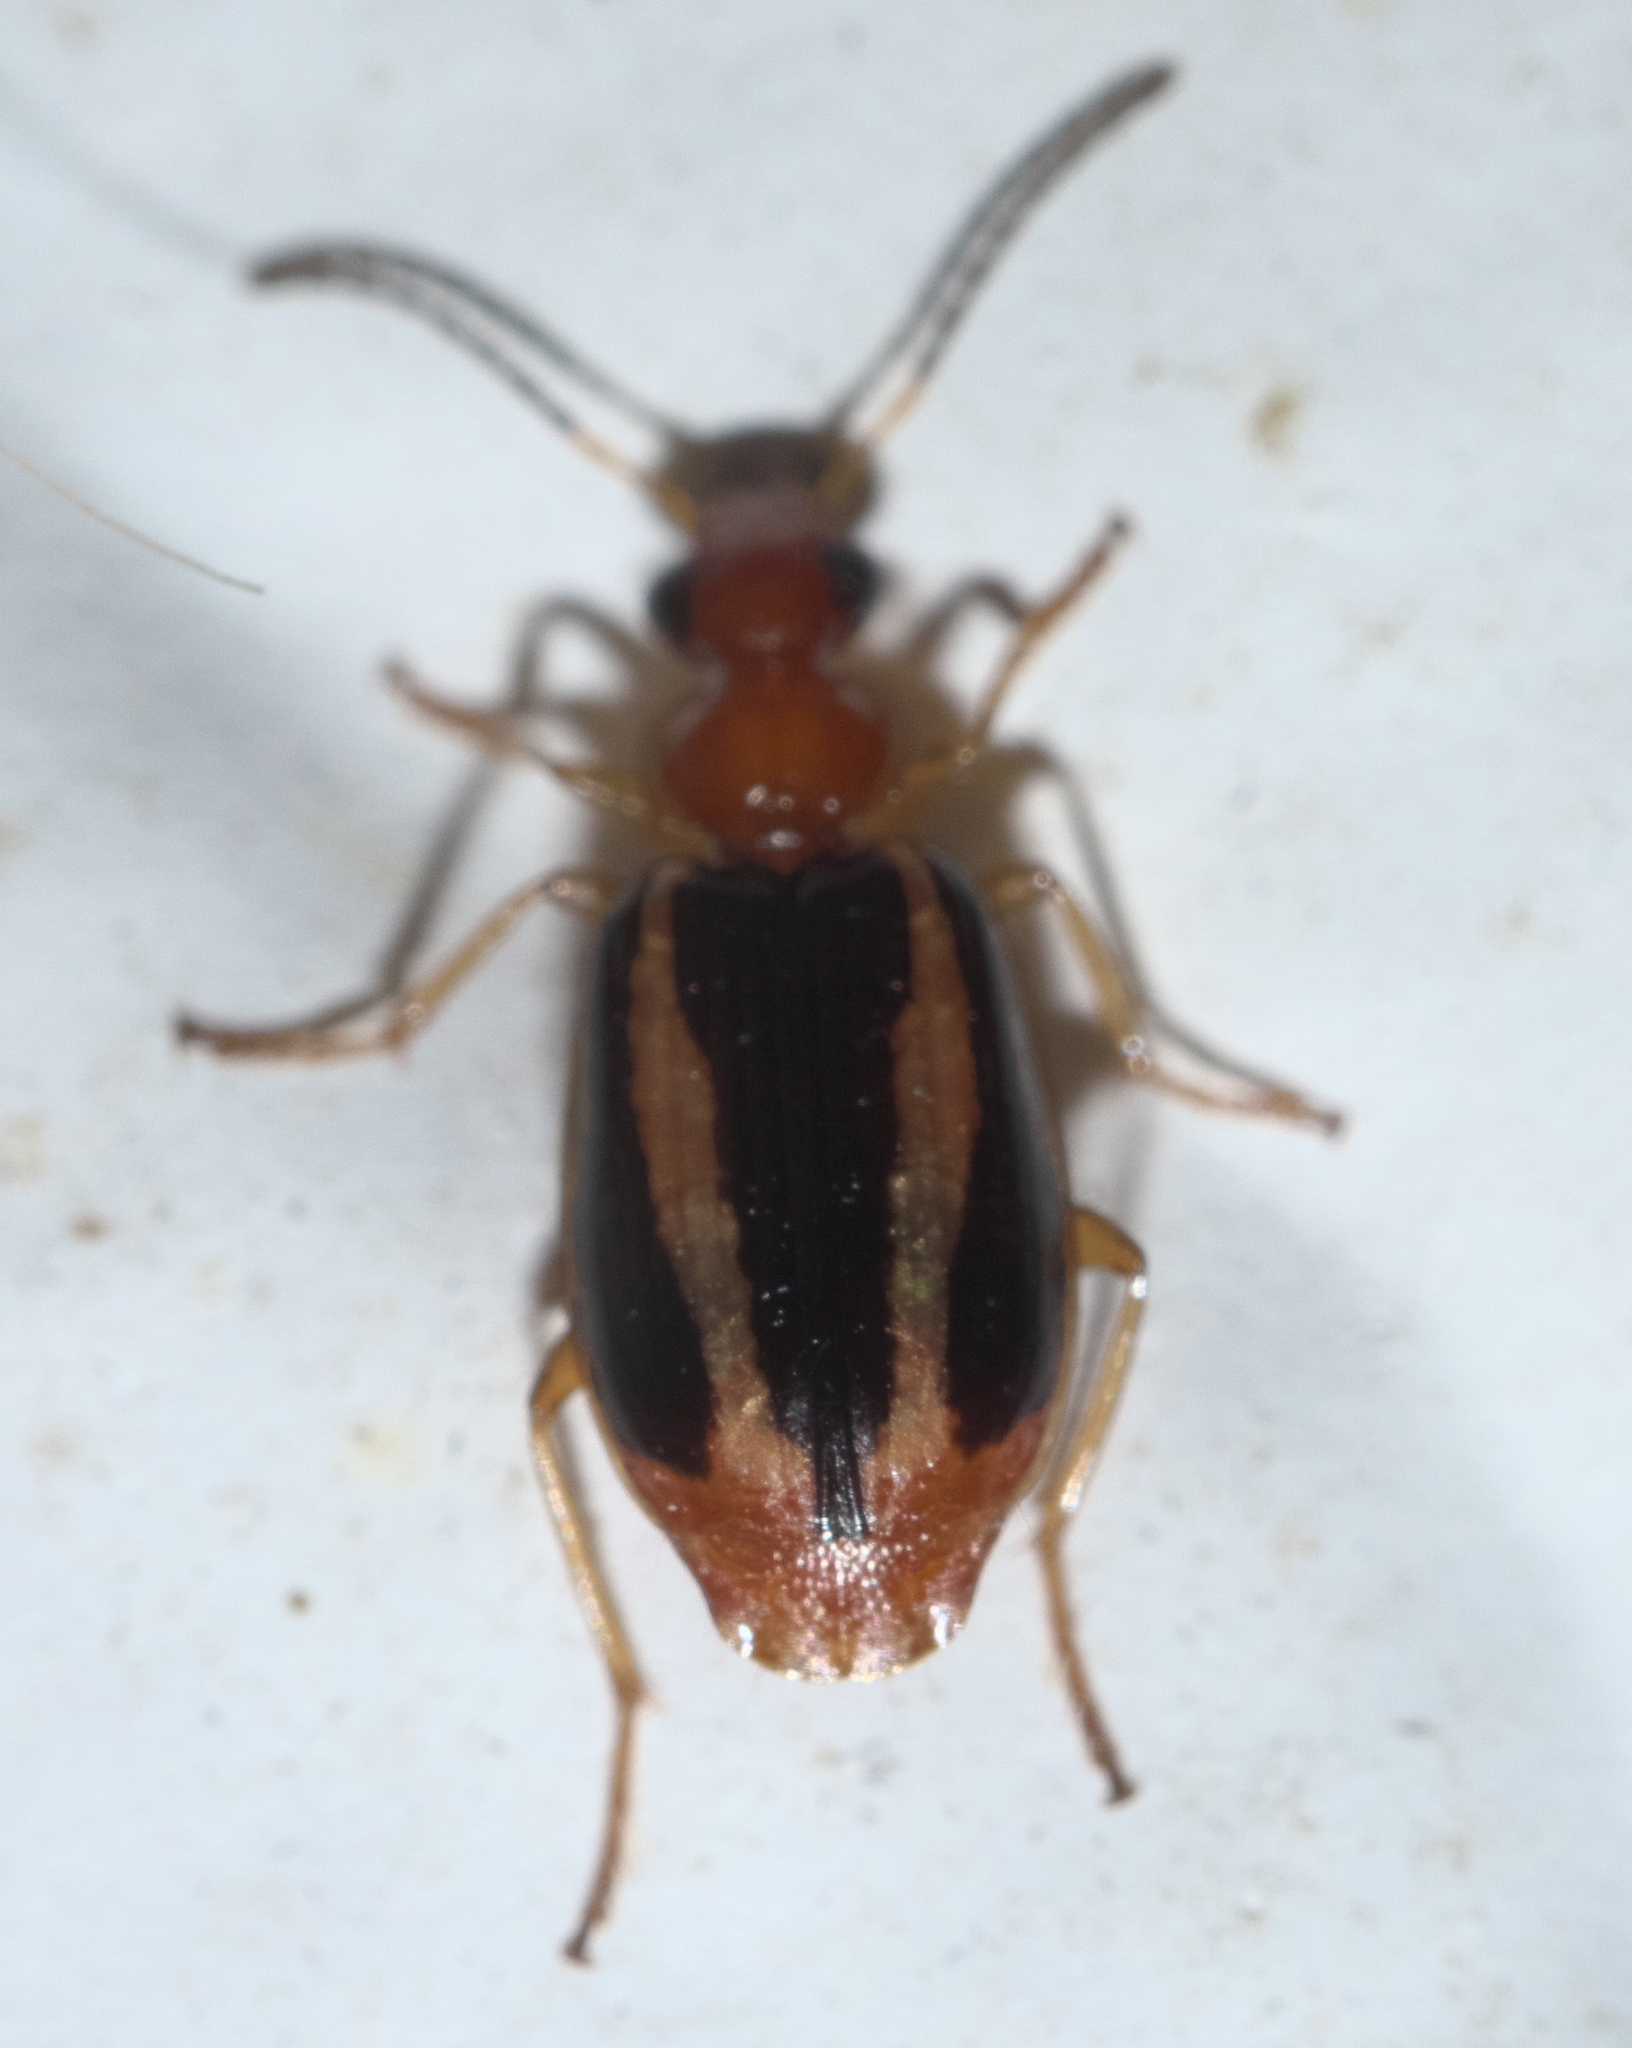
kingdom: Animalia
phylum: Arthropoda
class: Insecta
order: Coleoptera
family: Carabidae
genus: Lebia
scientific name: Lebia solea
